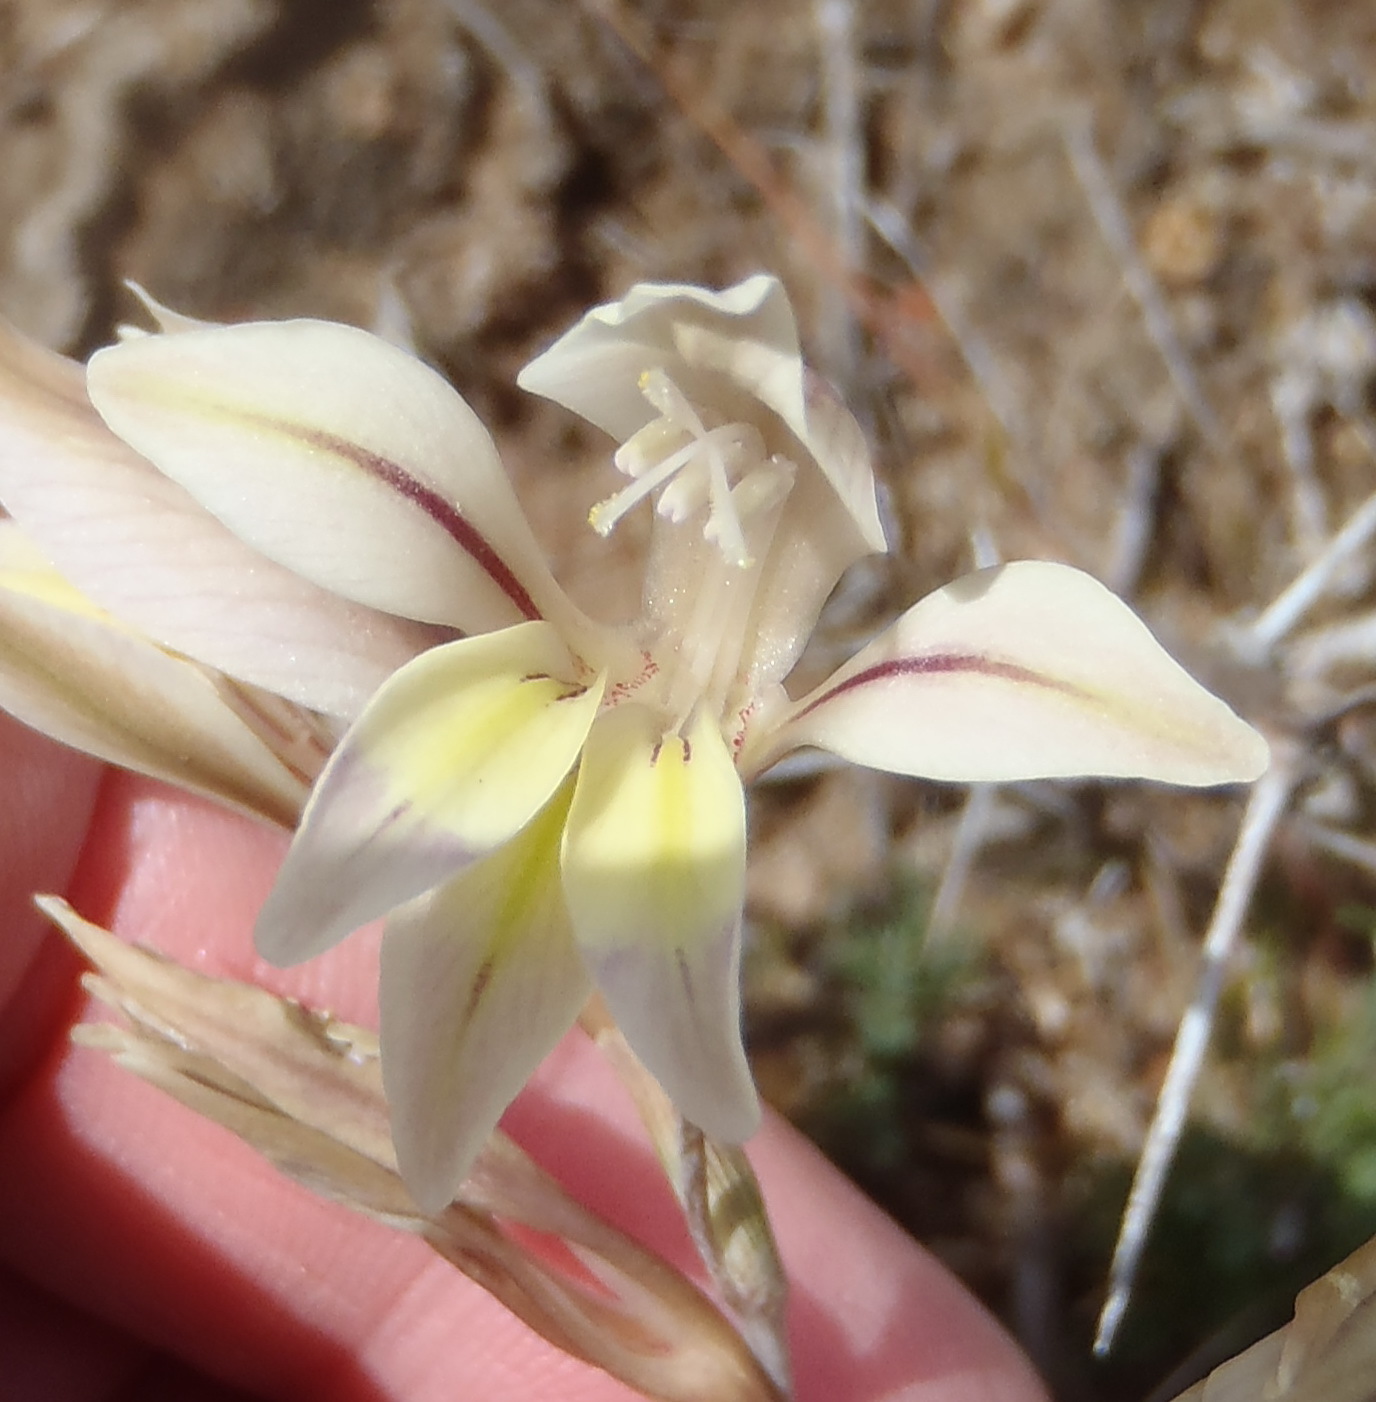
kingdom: Plantae
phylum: Tracheophyta
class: Liliopsida
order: Asparagales
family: Iridaceae
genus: Gladiolus
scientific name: Gladiolus permeabilis
